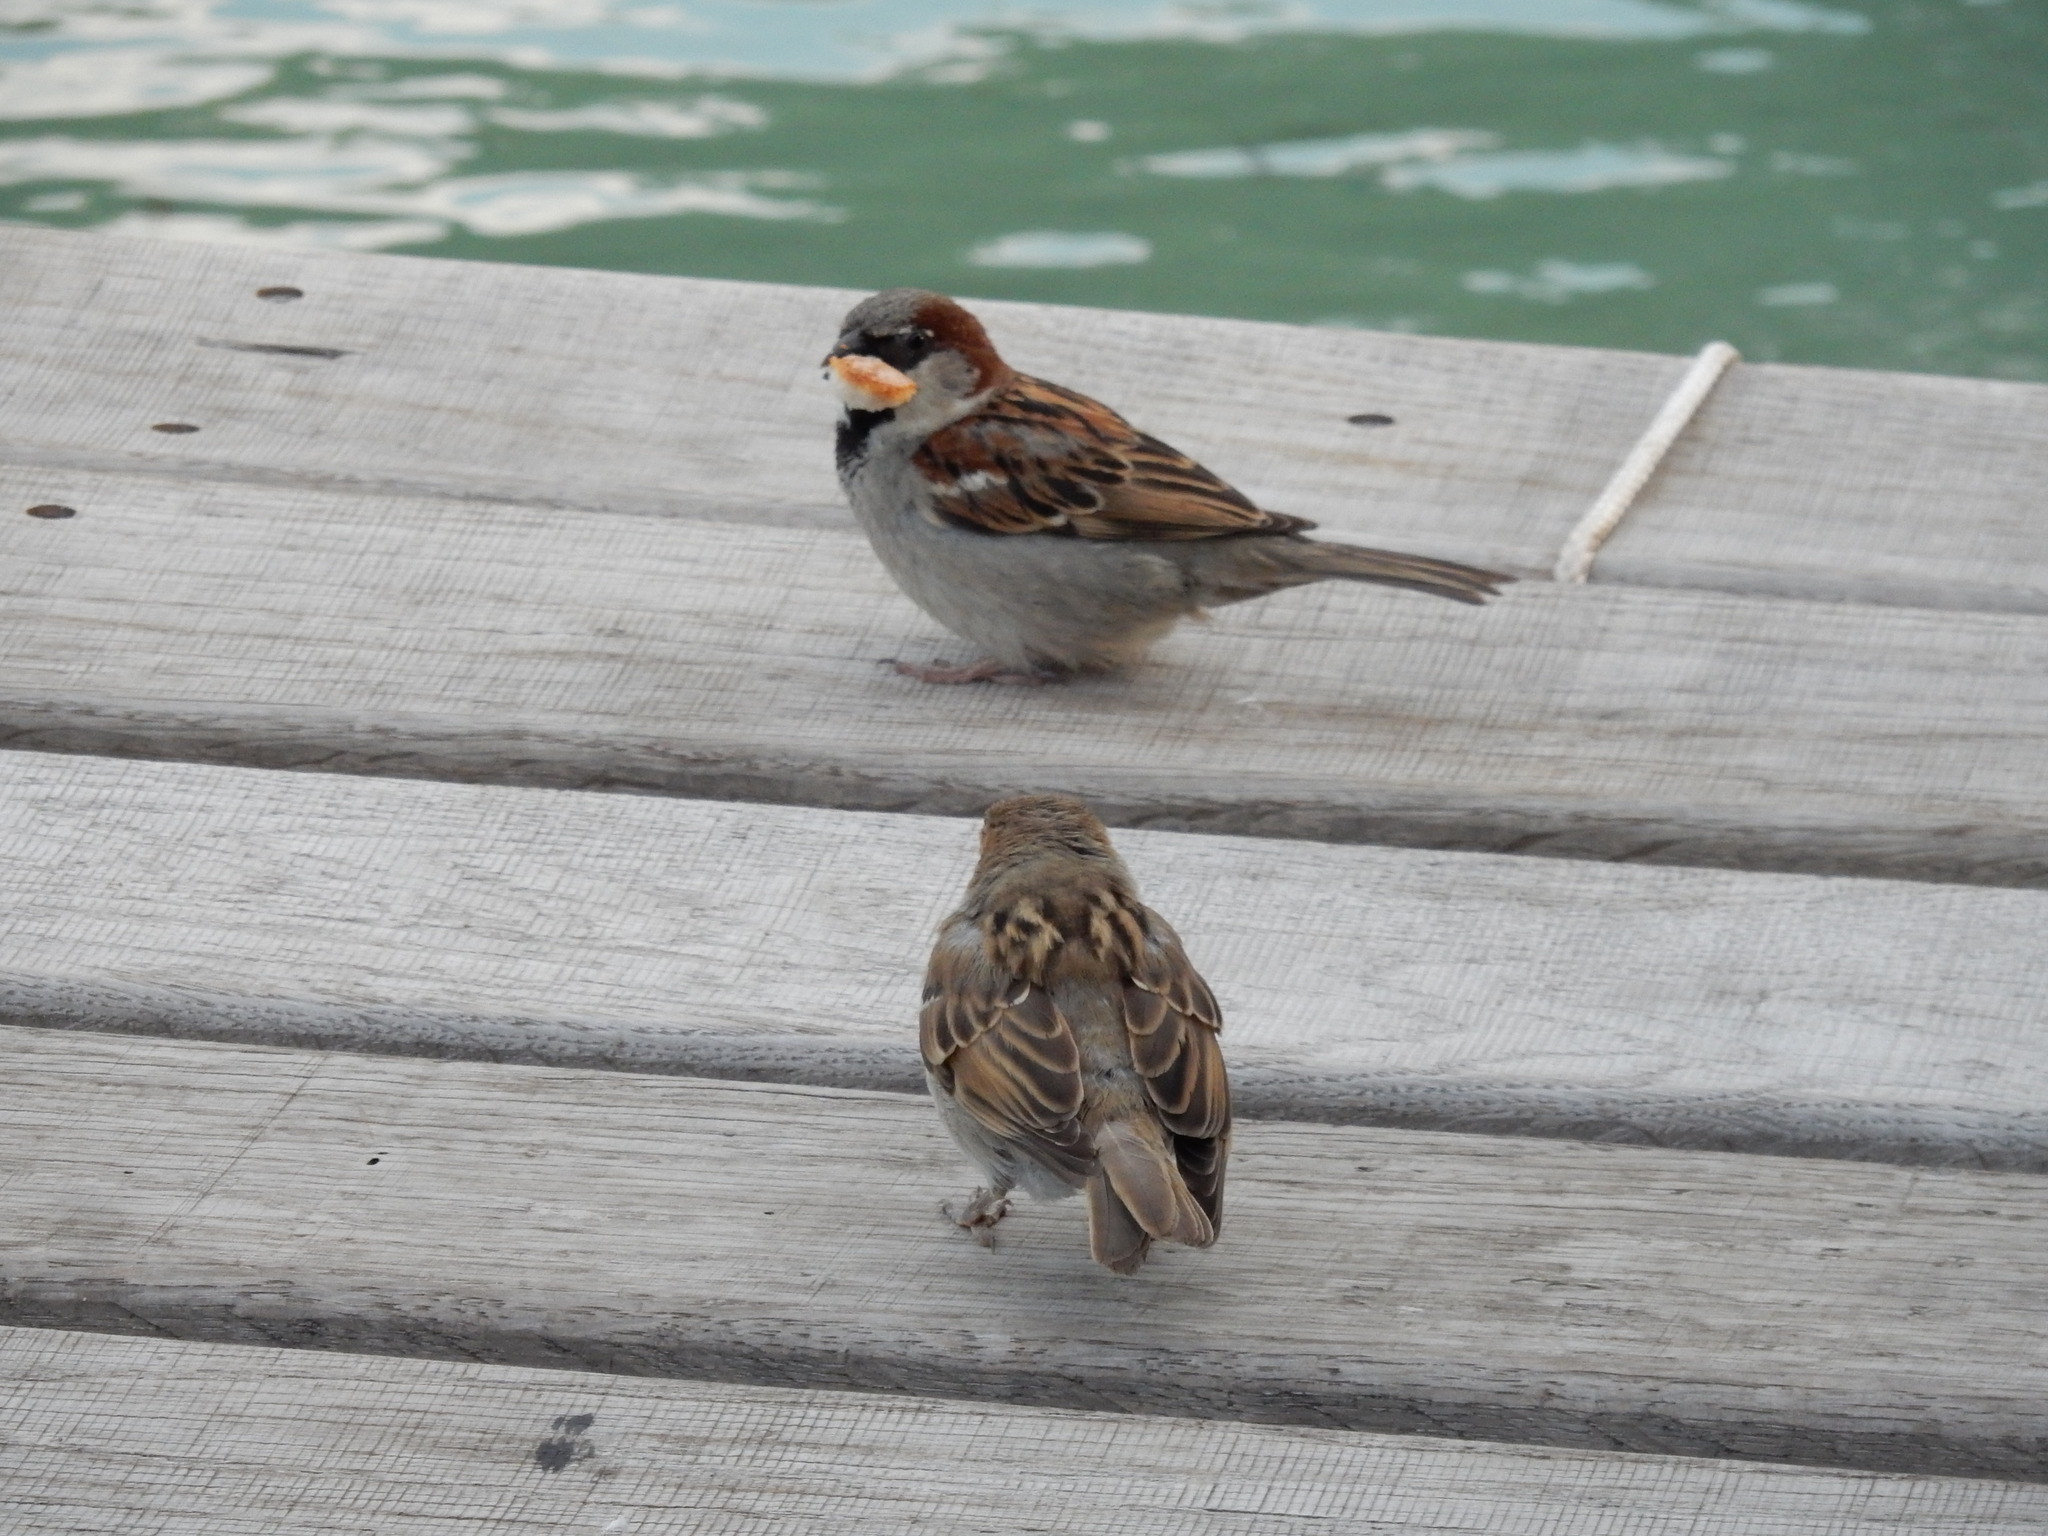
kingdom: Animalia
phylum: Chordata
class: Aves
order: Passeriformes
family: Passeridae
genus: Passer
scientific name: Passer domesticus
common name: House sparrow
